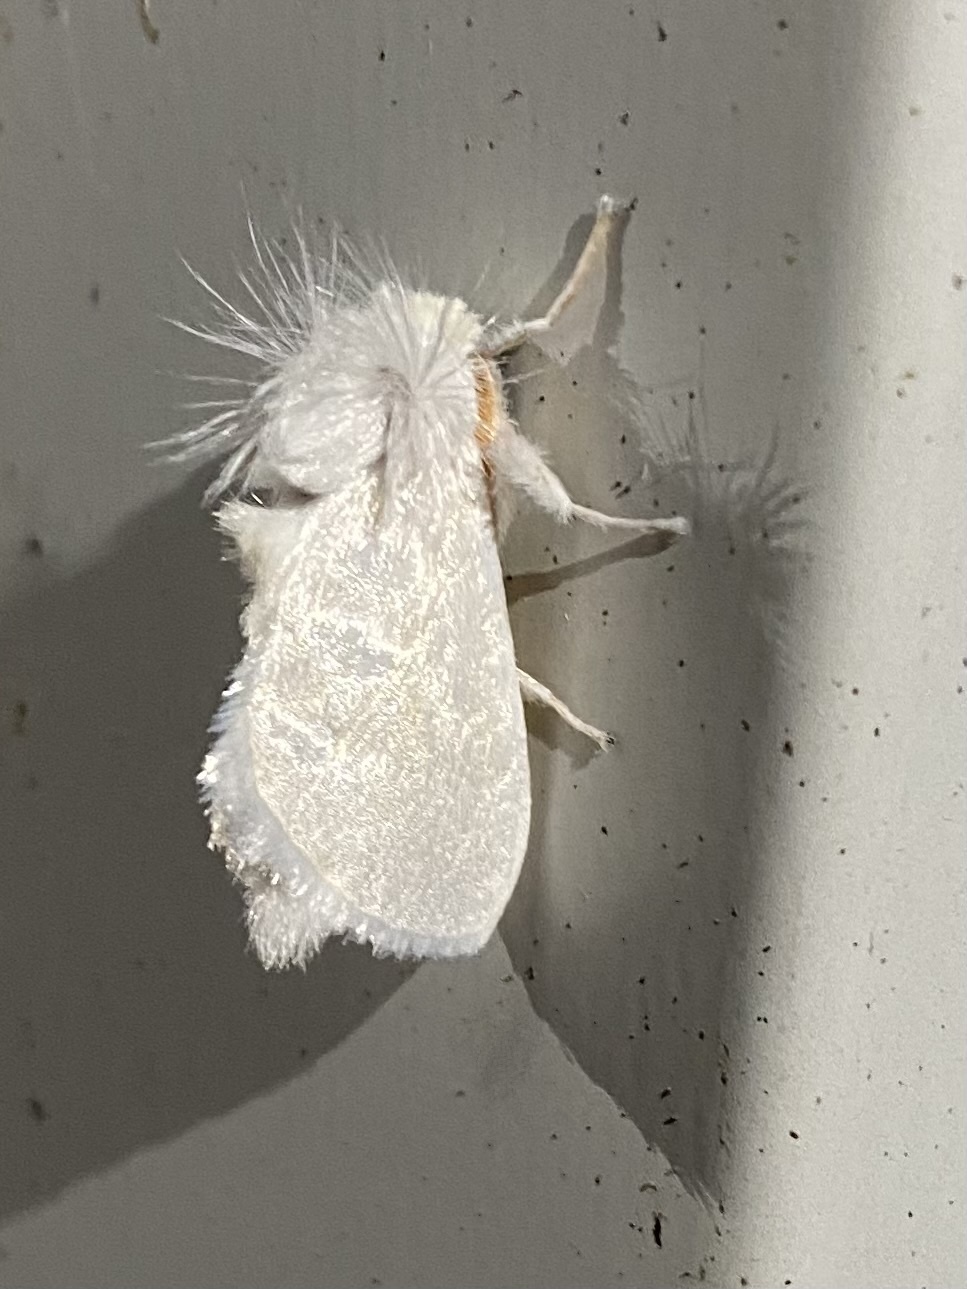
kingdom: Animalia
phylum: Arthropoda
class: Insecta
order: Lepidoptera
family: Megalopygidae
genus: Norape
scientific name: Norape cretata
